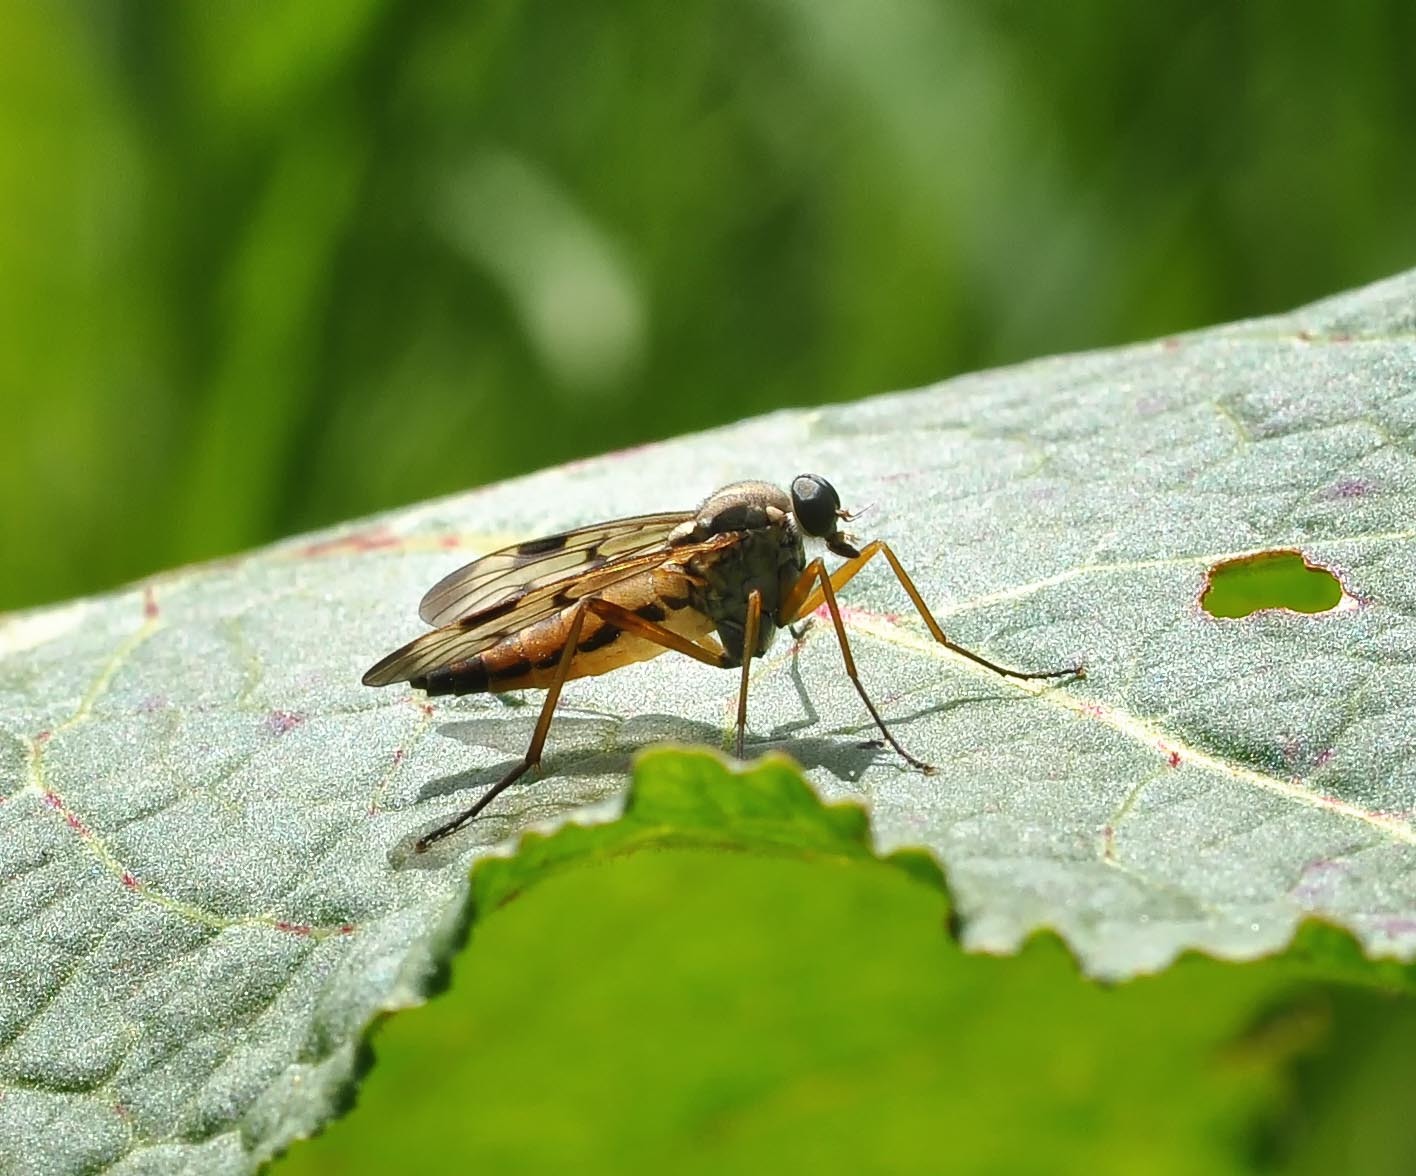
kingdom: Animalia
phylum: Arthropoda
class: Insecta
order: Diptera
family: Rhagionidae
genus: Rhagio
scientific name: Rhagio scolopacea
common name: Downlooker snipefly
